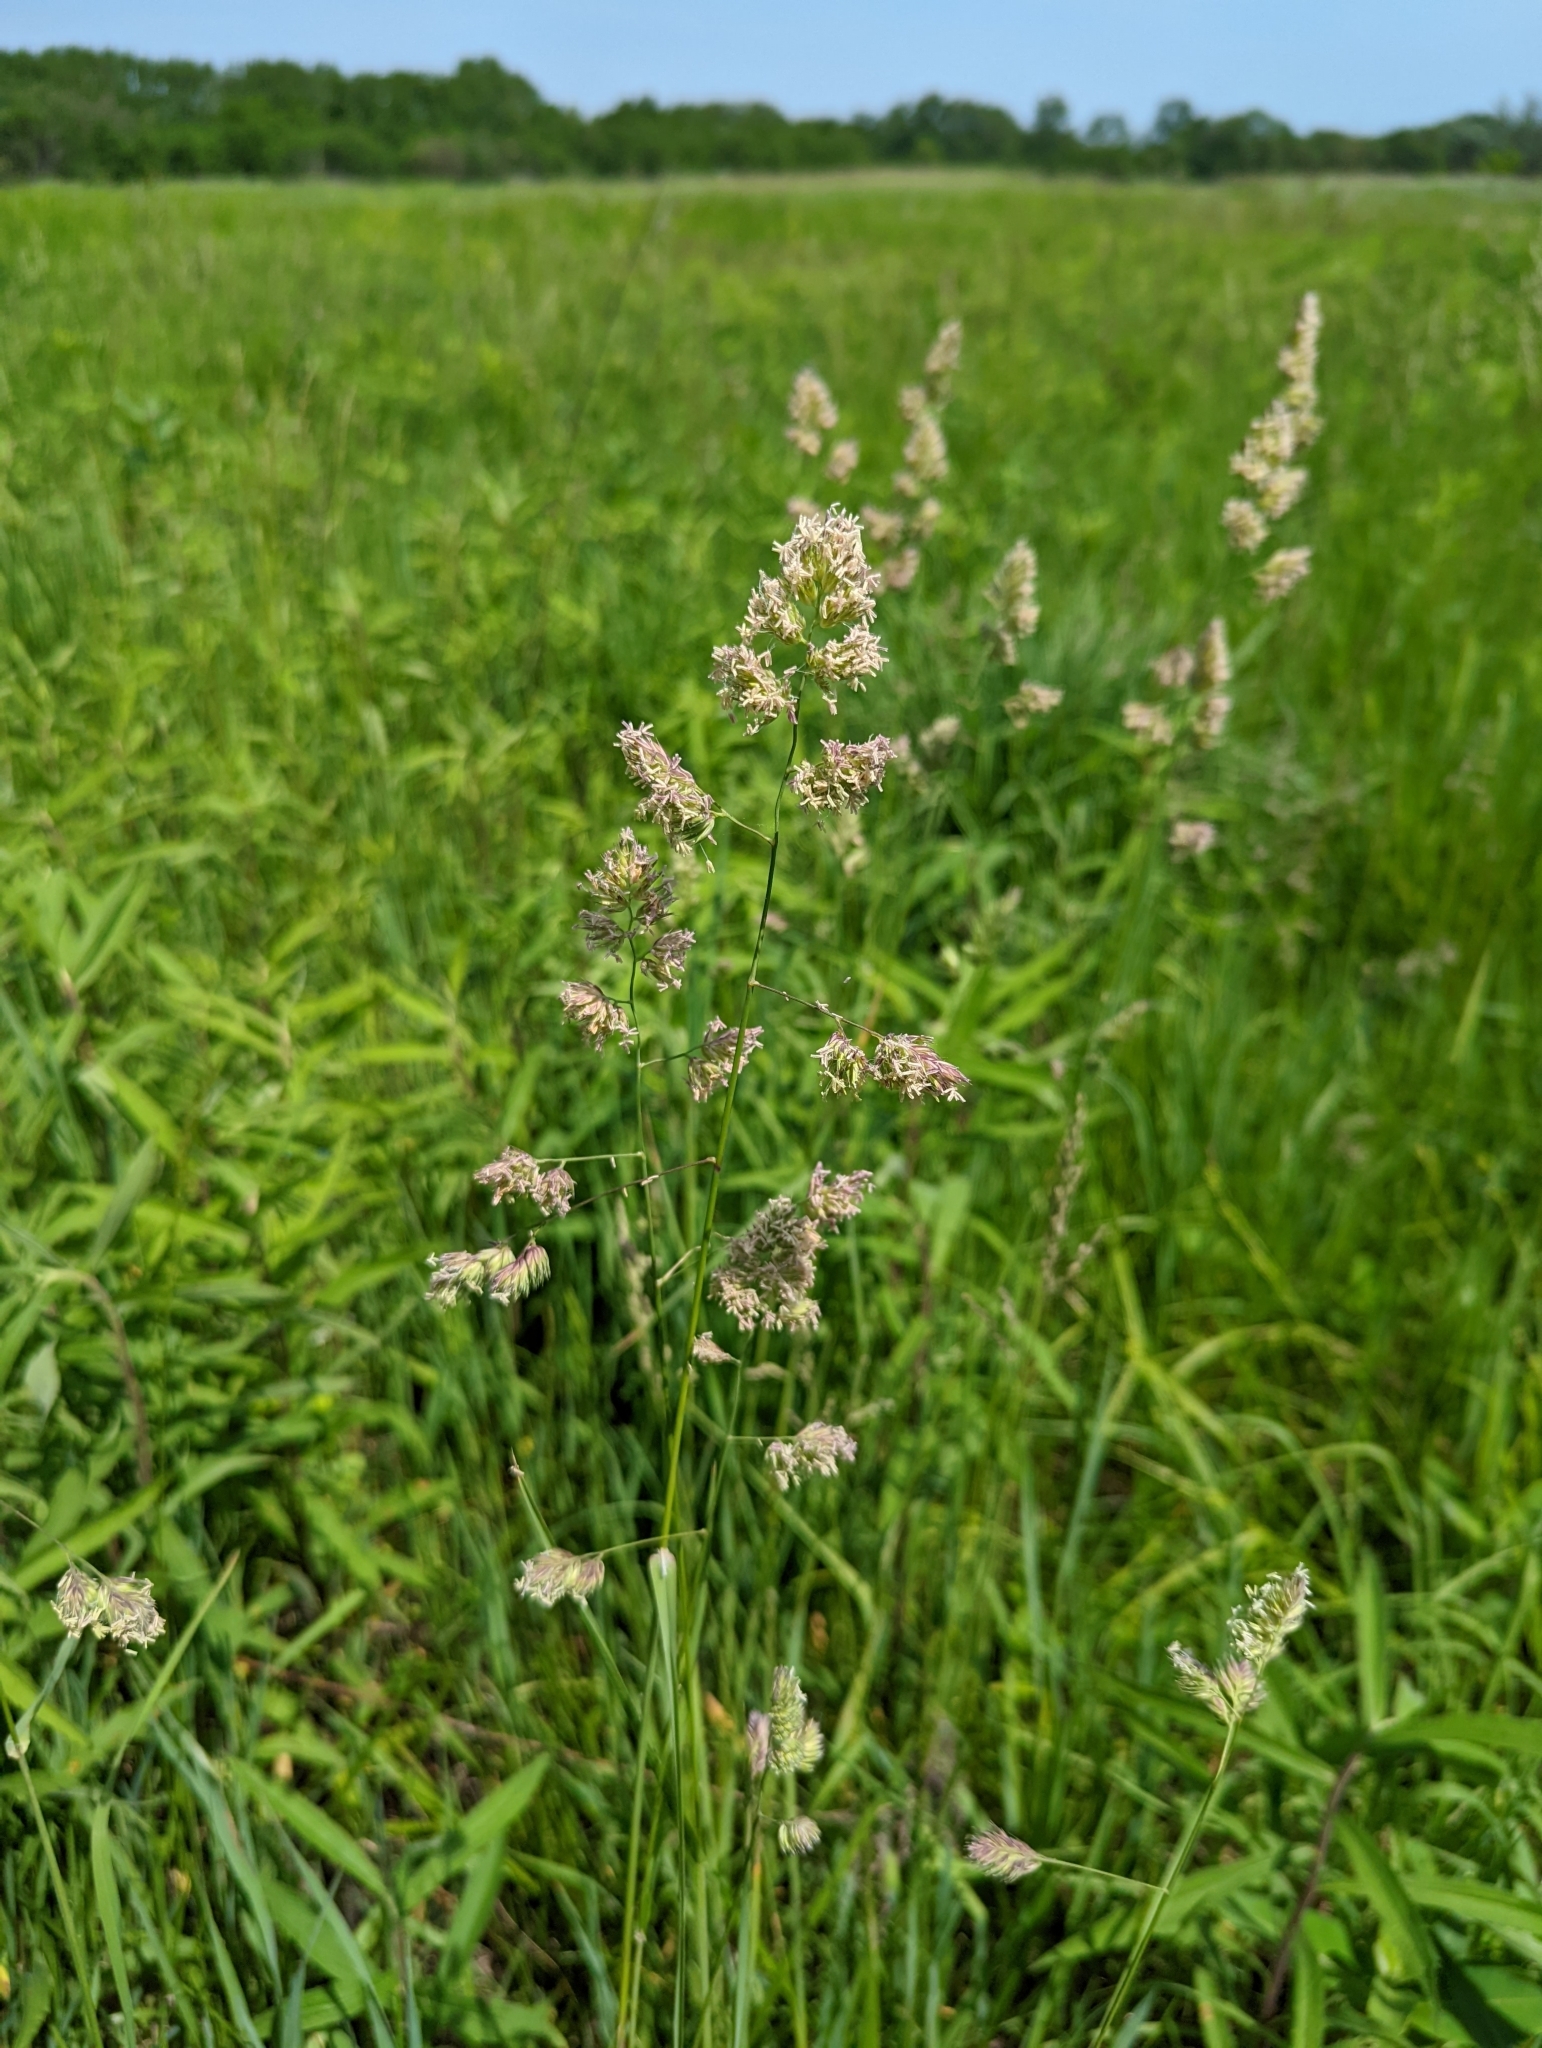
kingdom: Plantae
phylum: Tracheophyta
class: Liliopsida
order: Poales
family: Poaceae
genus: Dactylis
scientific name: Dactylis glomerata
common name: Orchardgrass
